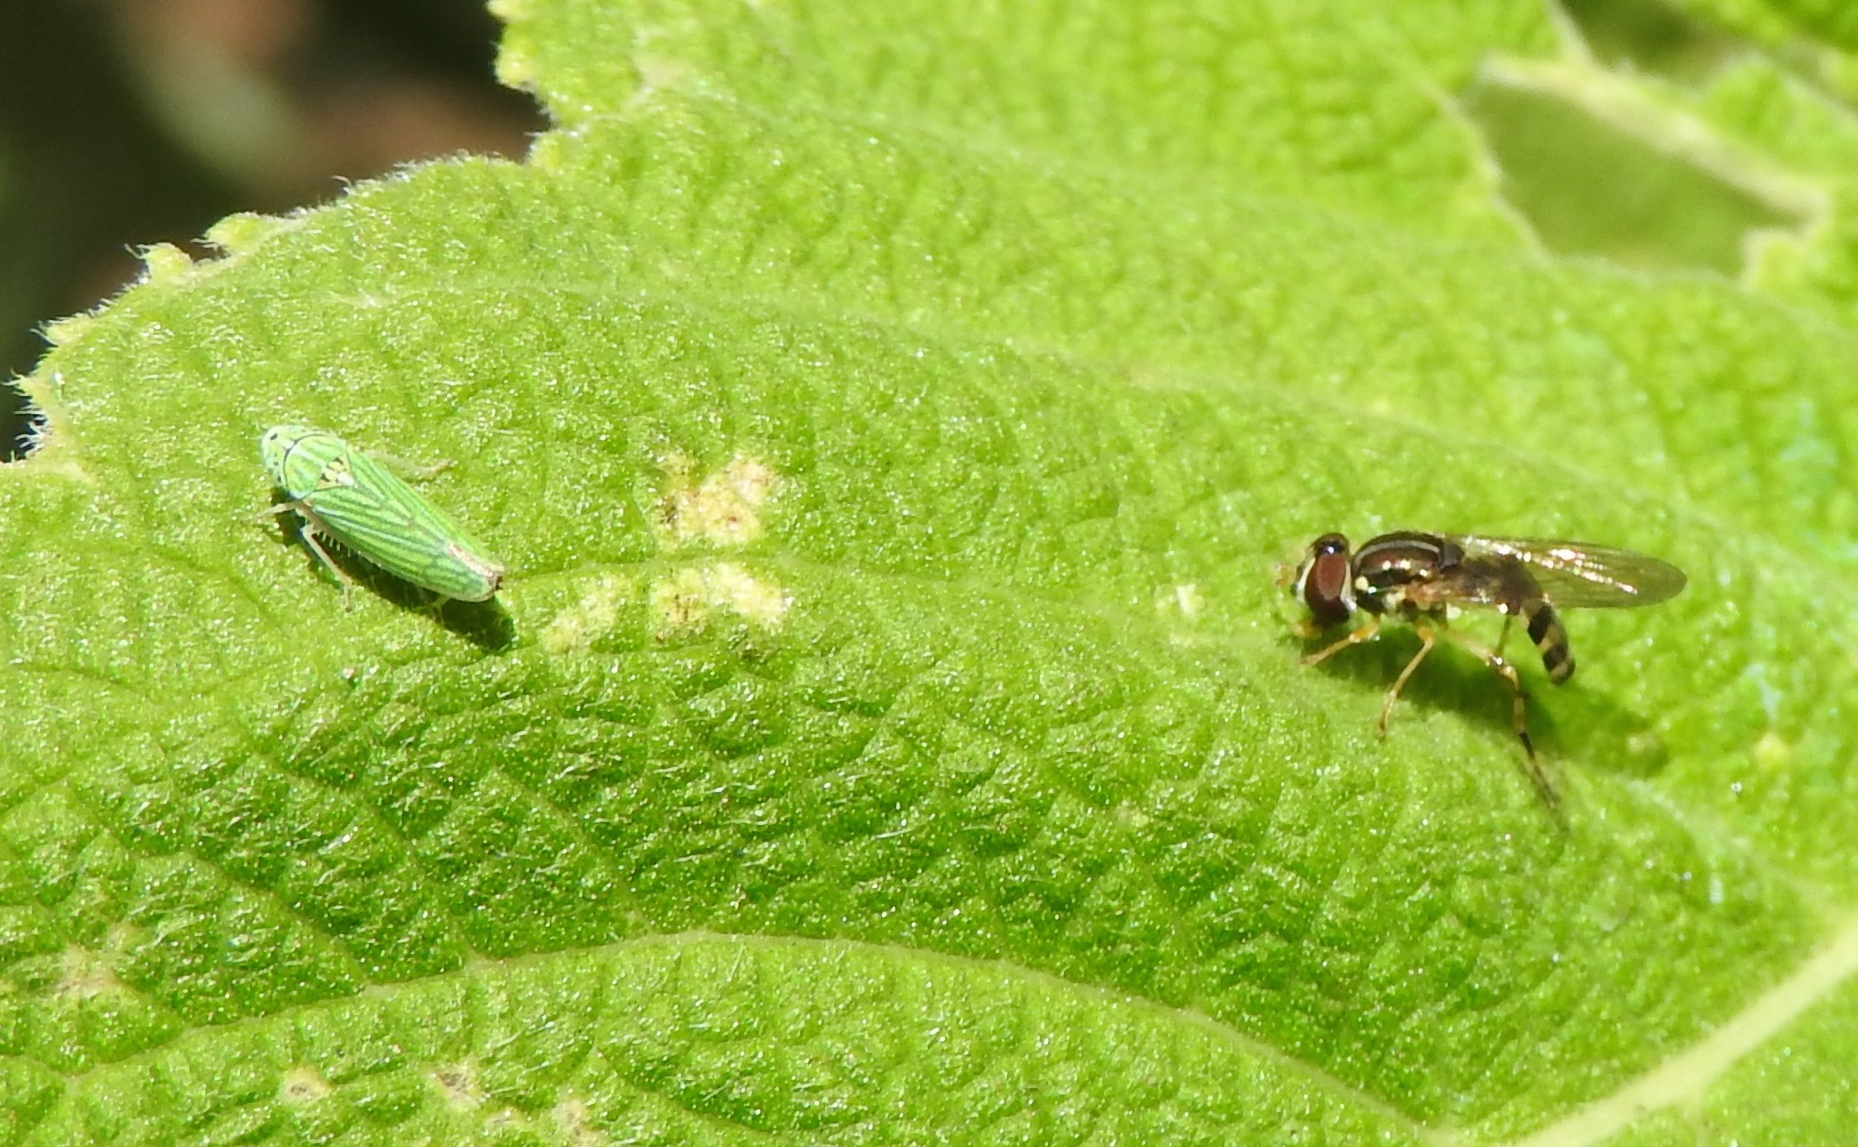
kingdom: Animalia
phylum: Arthropoda
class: Insecta
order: Hemiptera
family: Cicadellidae
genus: Graphocephala
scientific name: Graphocephala cythura
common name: Leafhopper
